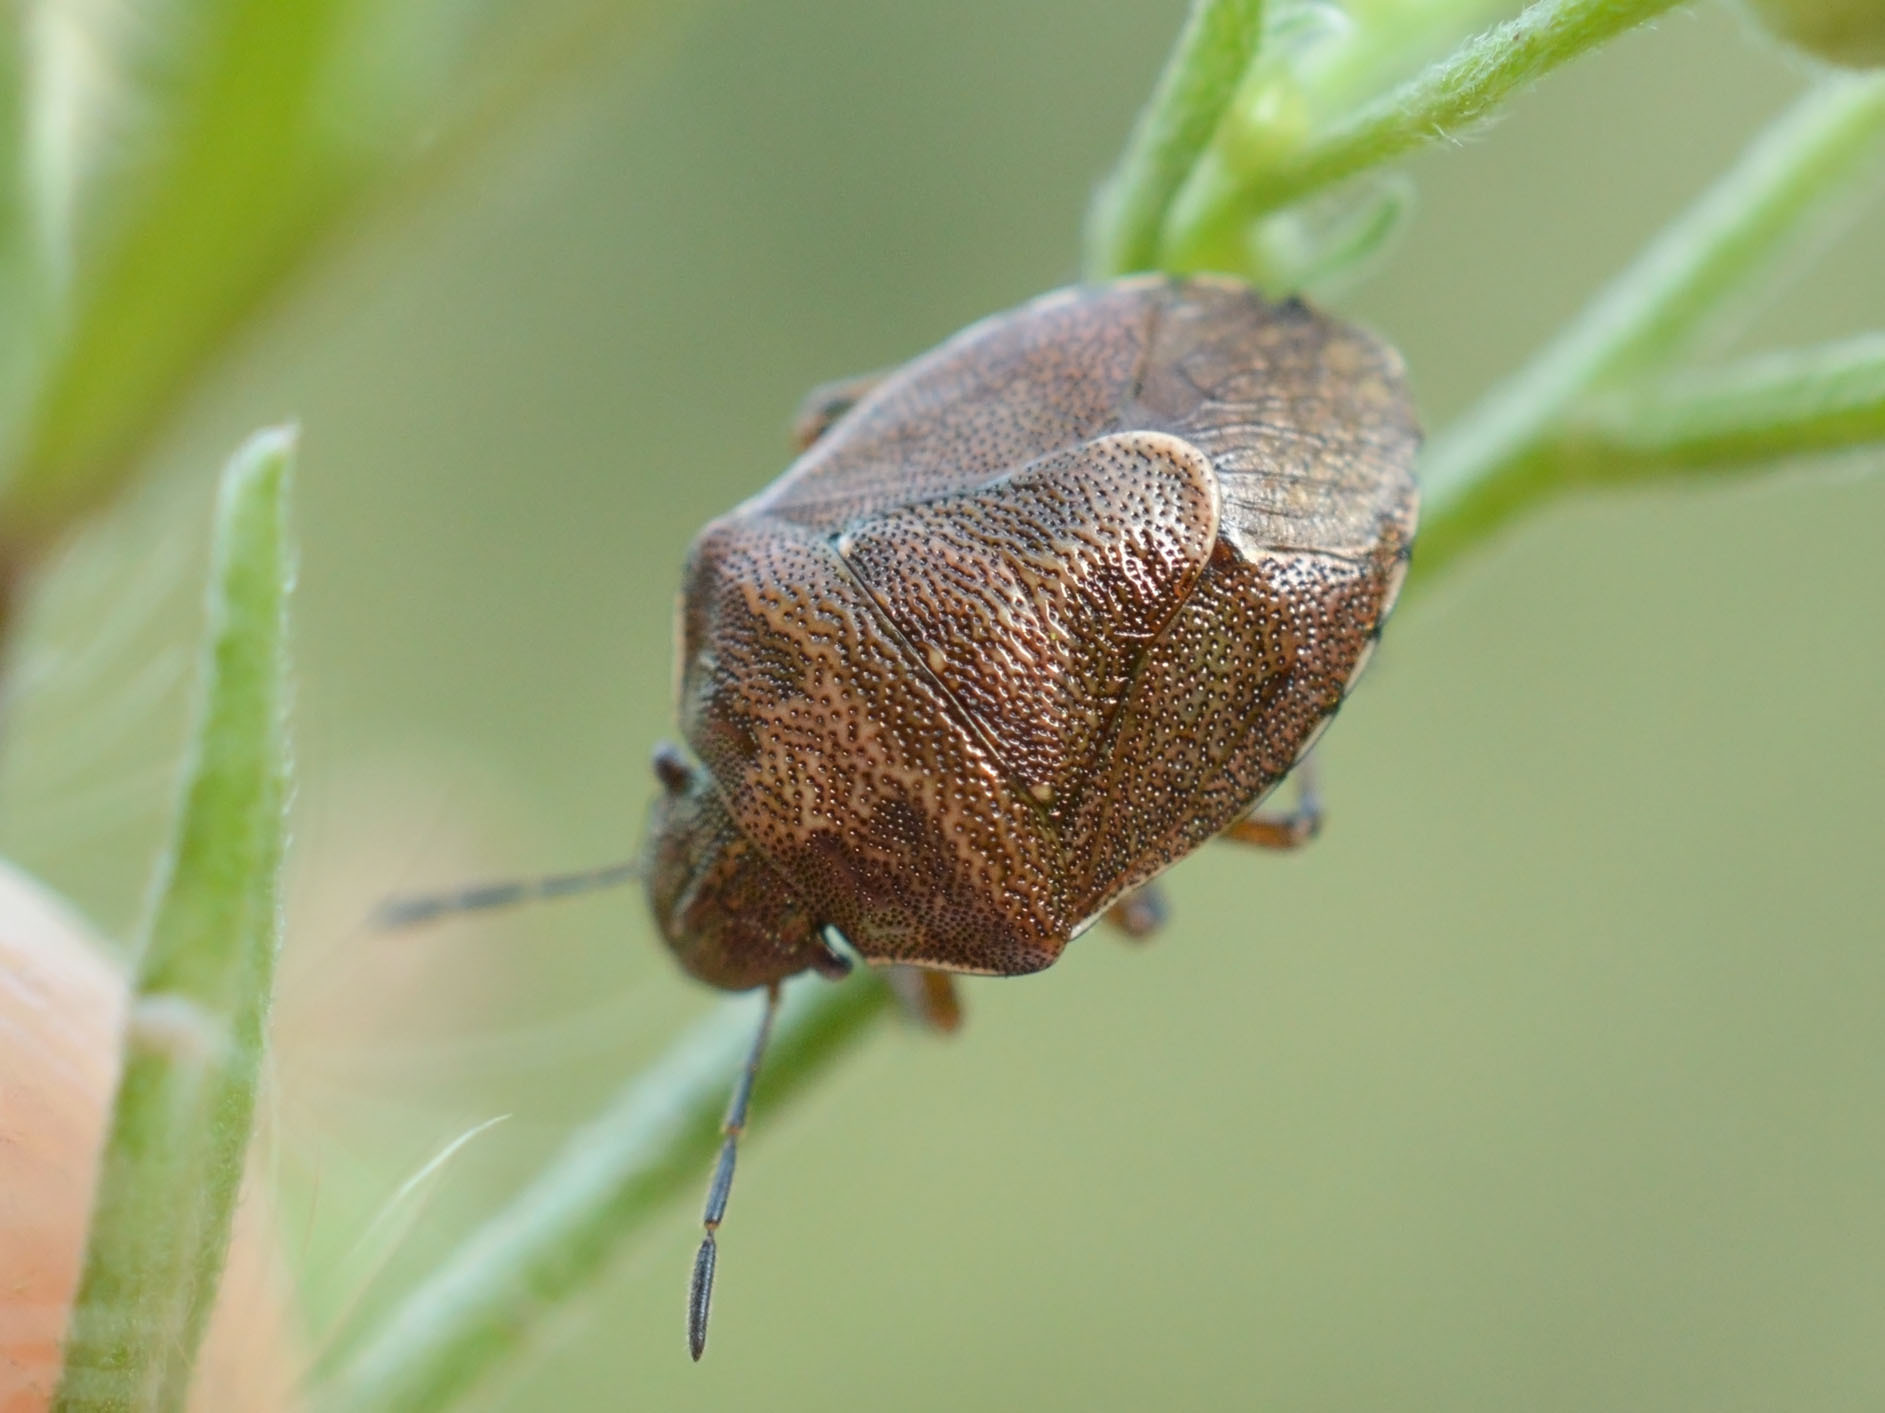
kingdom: Animalia
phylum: Arthropoda
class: Insecta
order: Hemiptera
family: Pentatomidae
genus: Rubiconia
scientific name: Rubiconia intermedia
